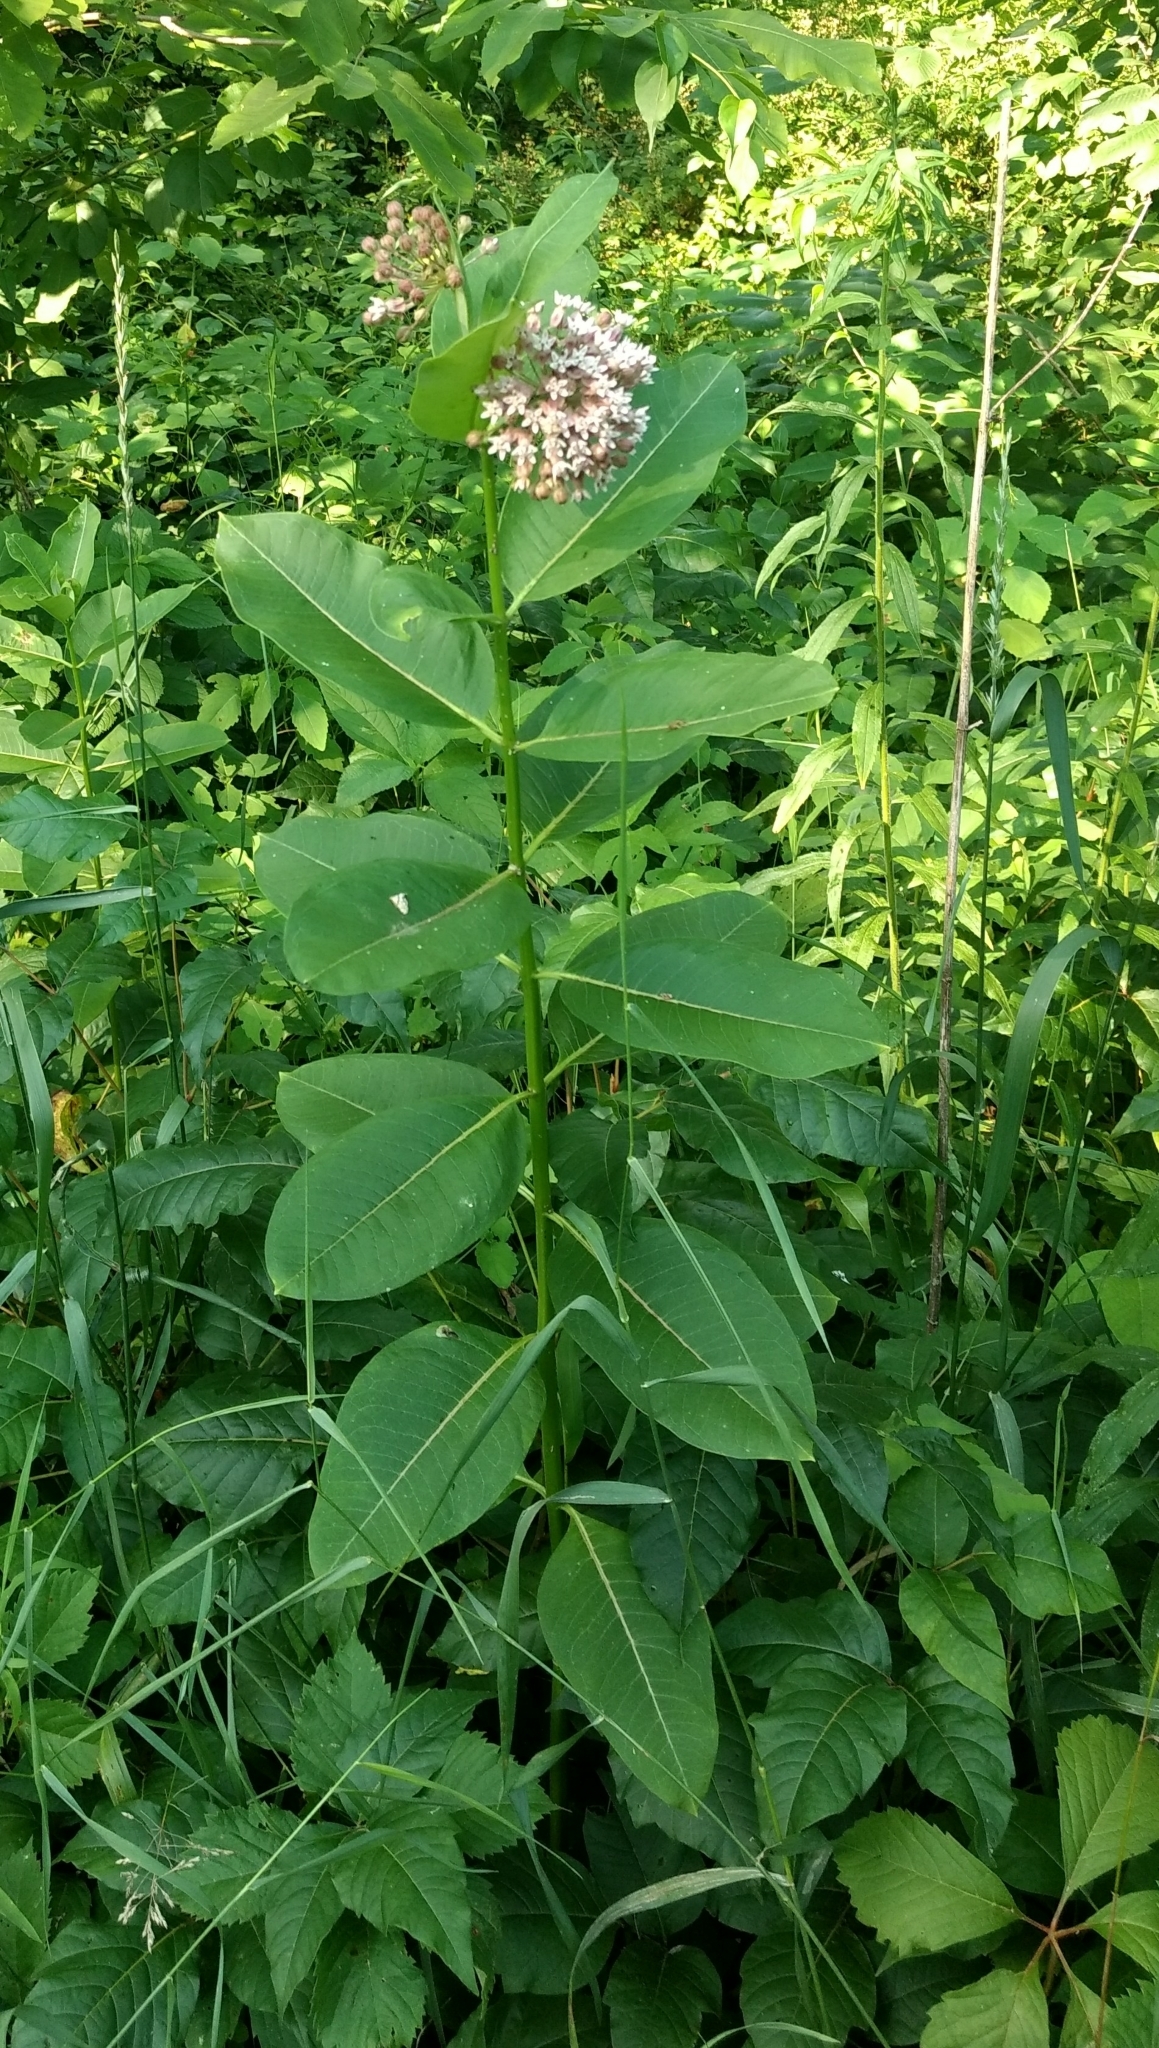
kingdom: Plantae
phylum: Tracheophyta
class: Magnoliopsida
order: Gentianales
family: Apocynaceae
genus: Asclepias
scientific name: Asclepias syriaca
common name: Common milkweed
